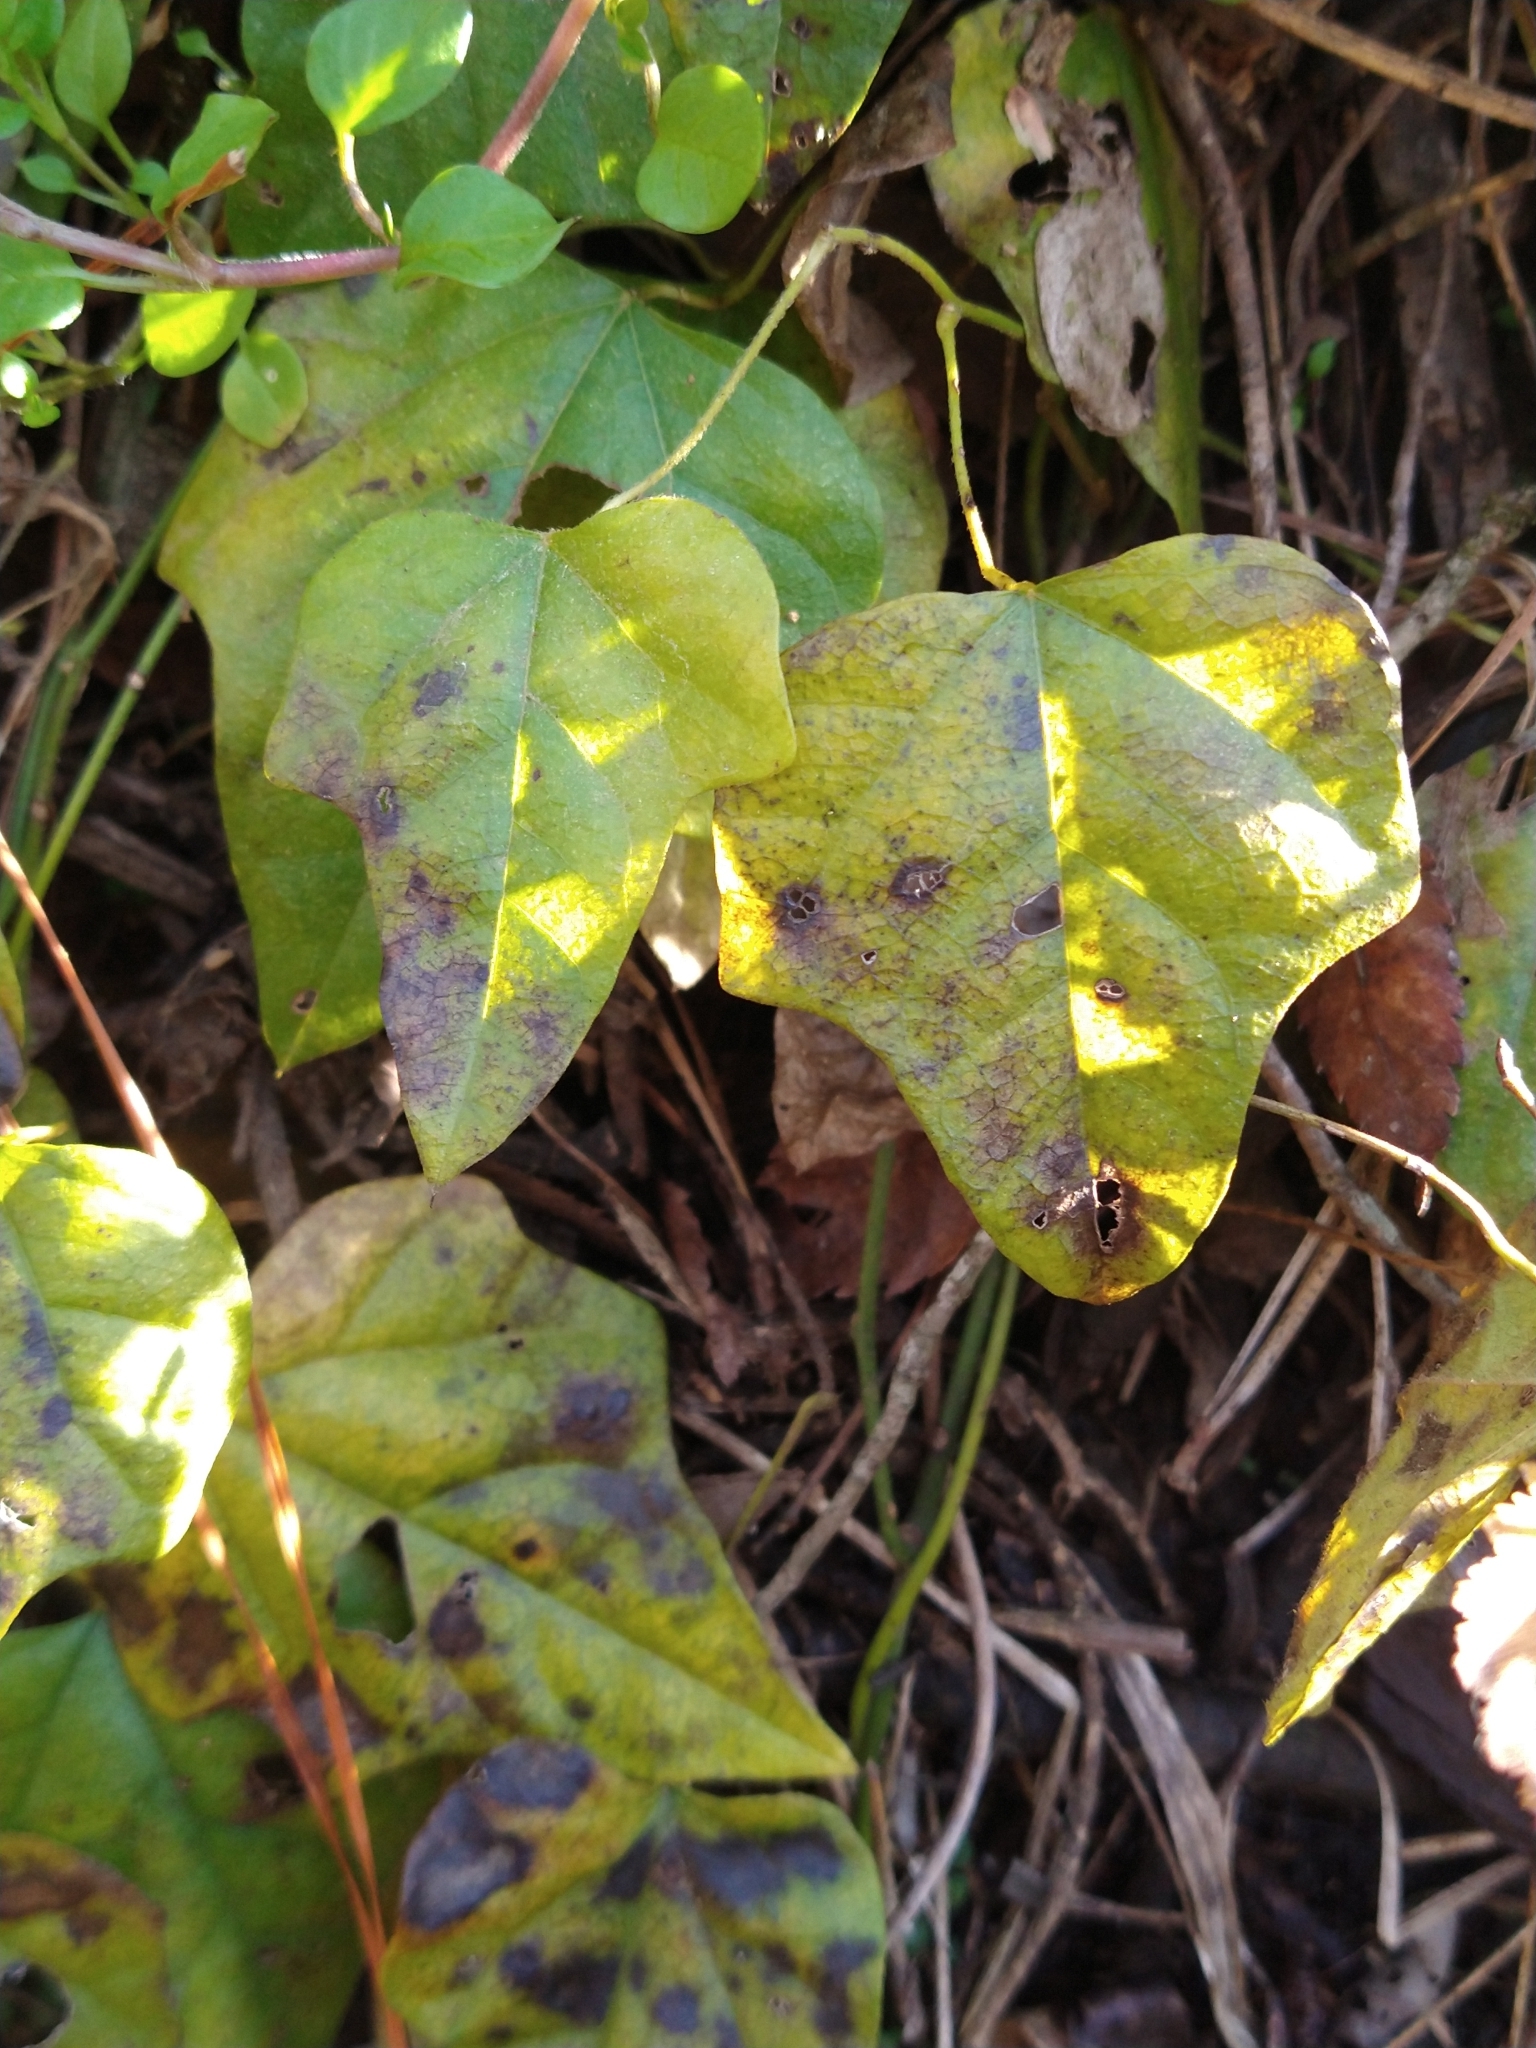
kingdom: Plantae
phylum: Tracheophyta
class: Magnoliopsida
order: Ranunculales
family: Menispermaceae
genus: Cocculus
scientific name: Cocculus carolinus
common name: Carolina moonseed
